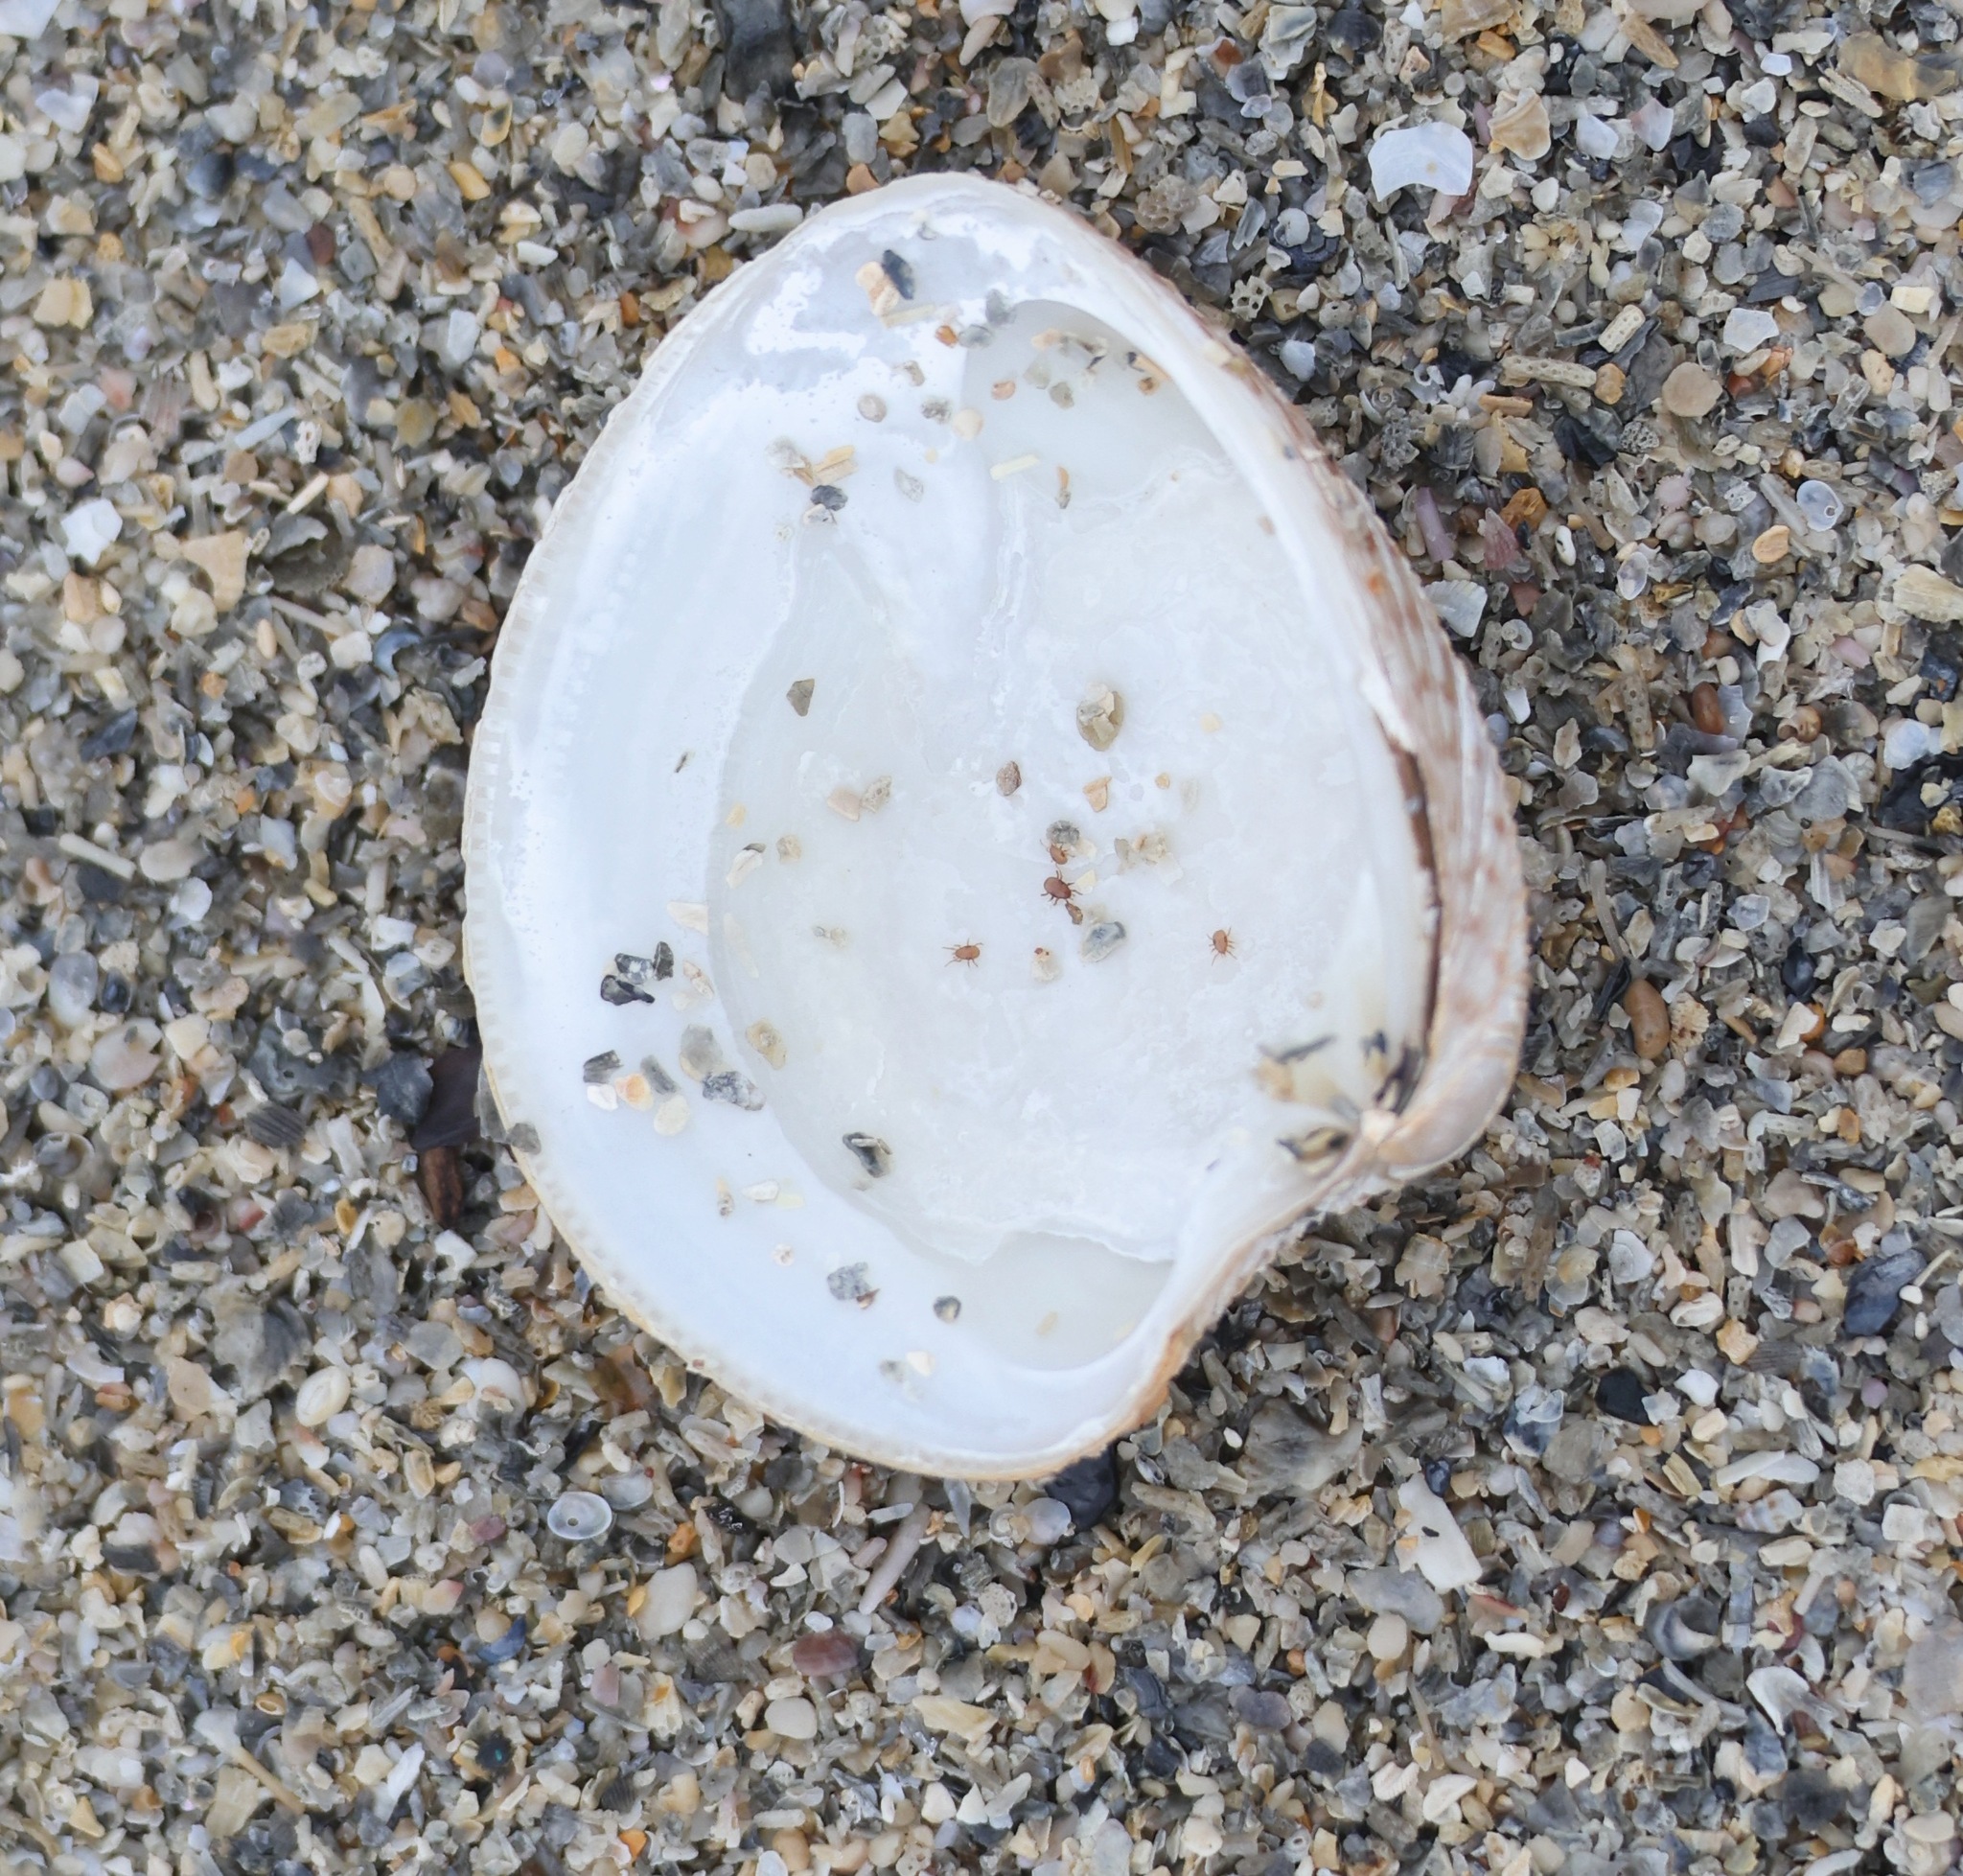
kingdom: Animalia
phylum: Mollusca
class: Bivalvia
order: Venerida
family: Veneridae
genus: Chamelea
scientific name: Chamelea striatula
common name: Striped venus
